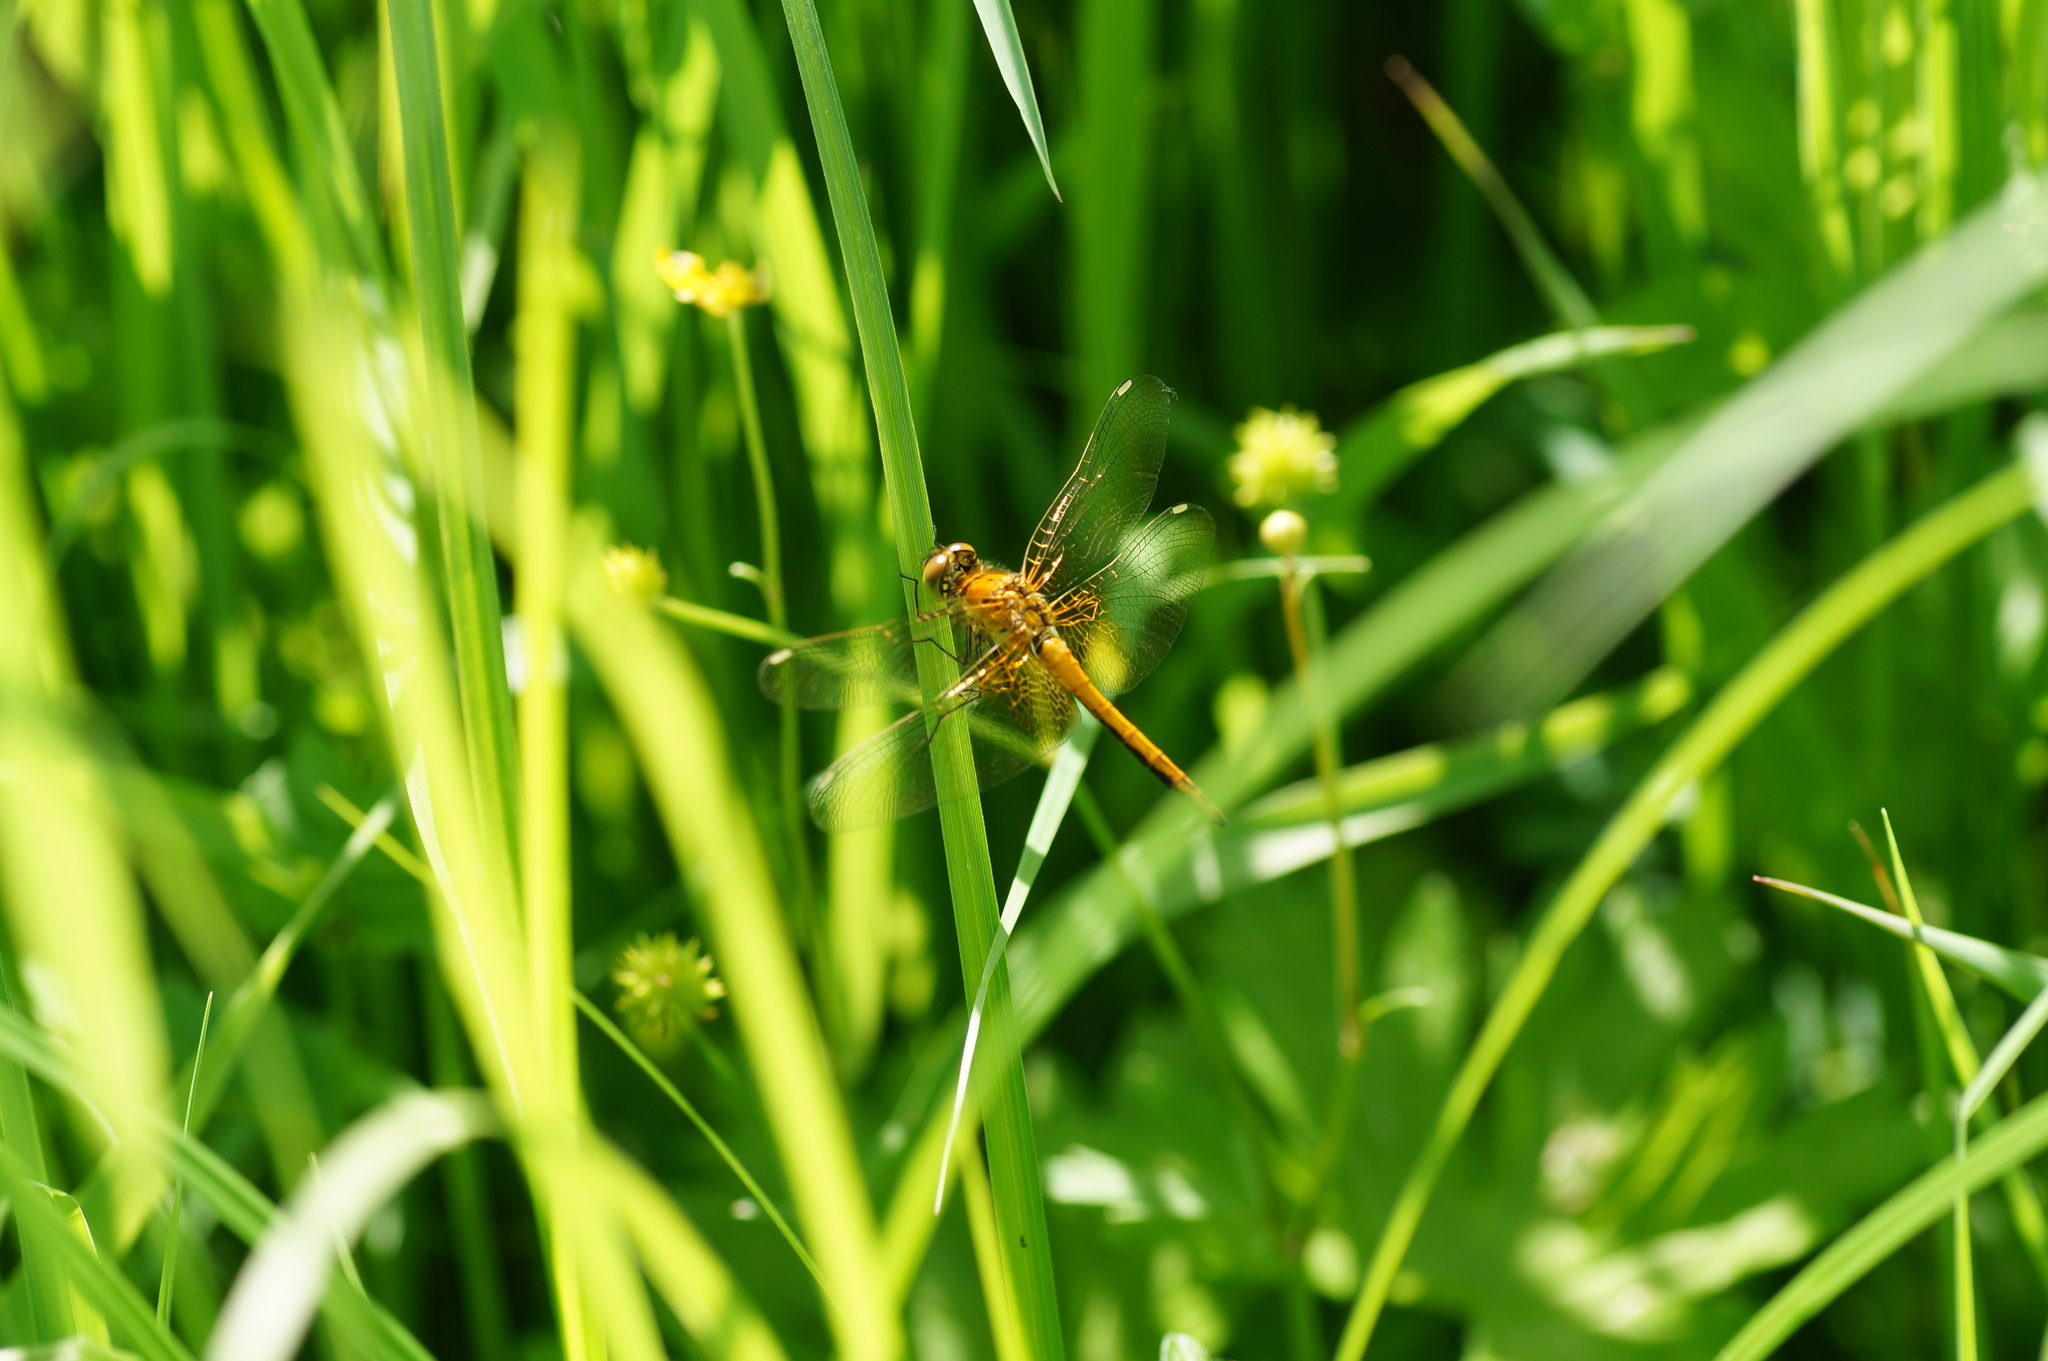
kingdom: Animalia
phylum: Arthropoda
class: Insecta
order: Odonata
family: Libellulidae
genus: Sympetrum
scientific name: Sympetrum flaveolum
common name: Yellow-winged darter
